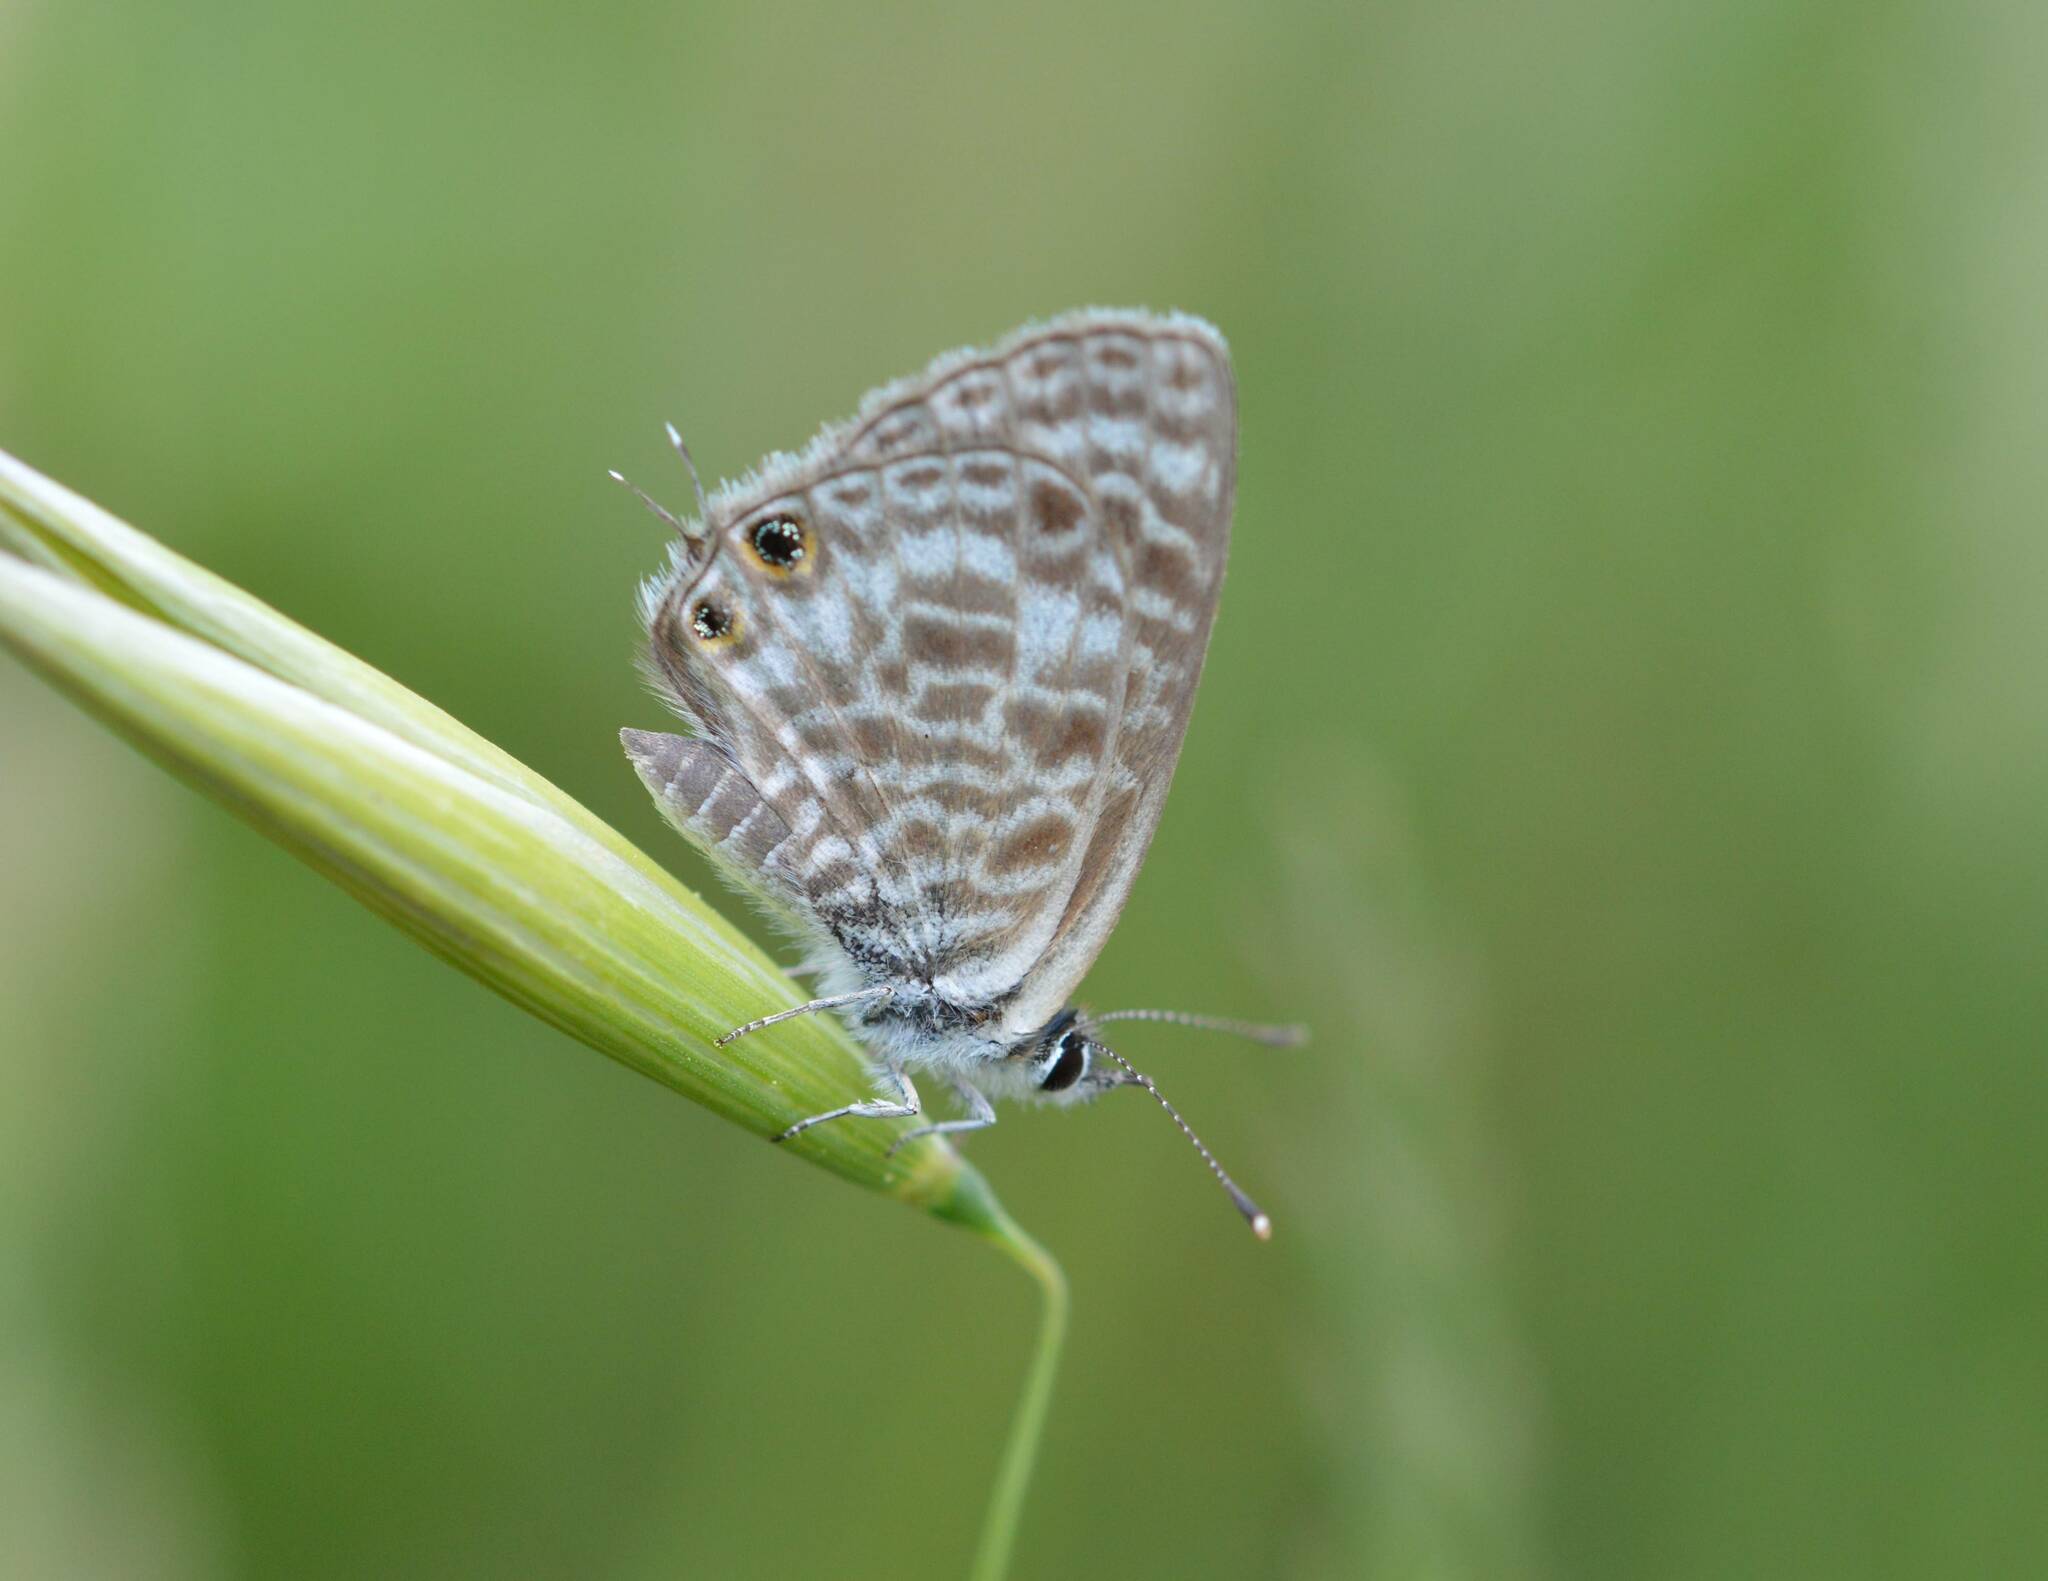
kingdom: Animalia
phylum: Arthropoda
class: Insecta
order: Lepidoptera
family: Lycaenidae
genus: Leptotes
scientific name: Leptotes pirithous
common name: Lang's short-tailed blue
